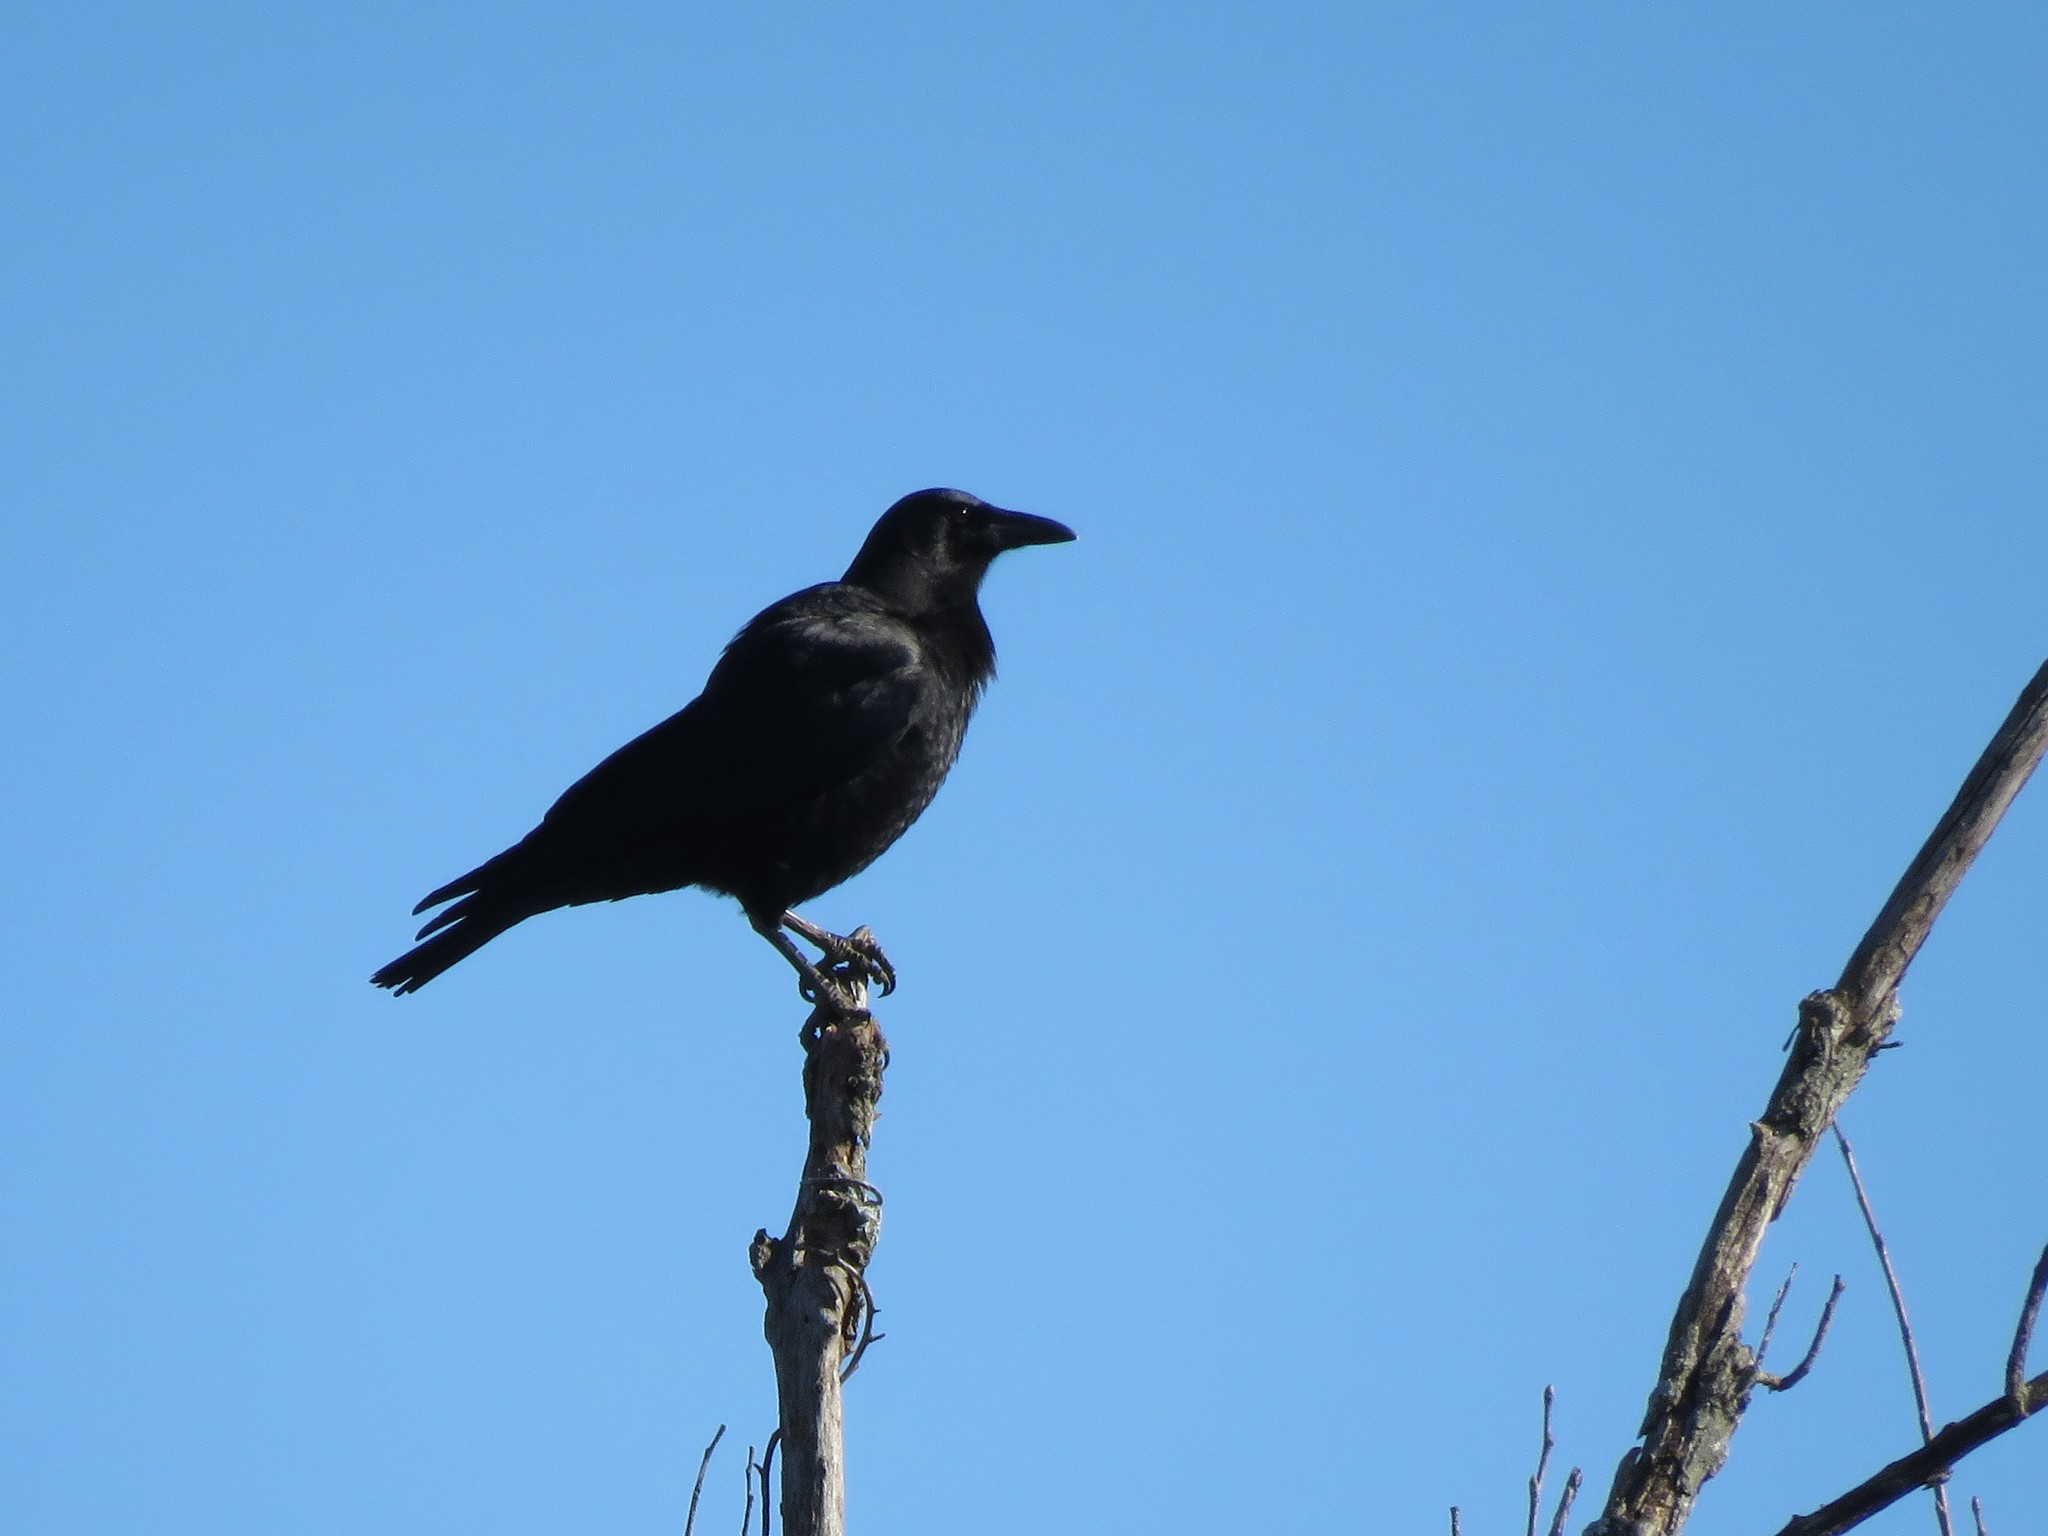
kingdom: Animalia
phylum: Chordata
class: Aves
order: Passeriformes
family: Corvidae
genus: Corvus
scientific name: Corvus brachyrhynchos
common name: American crow
